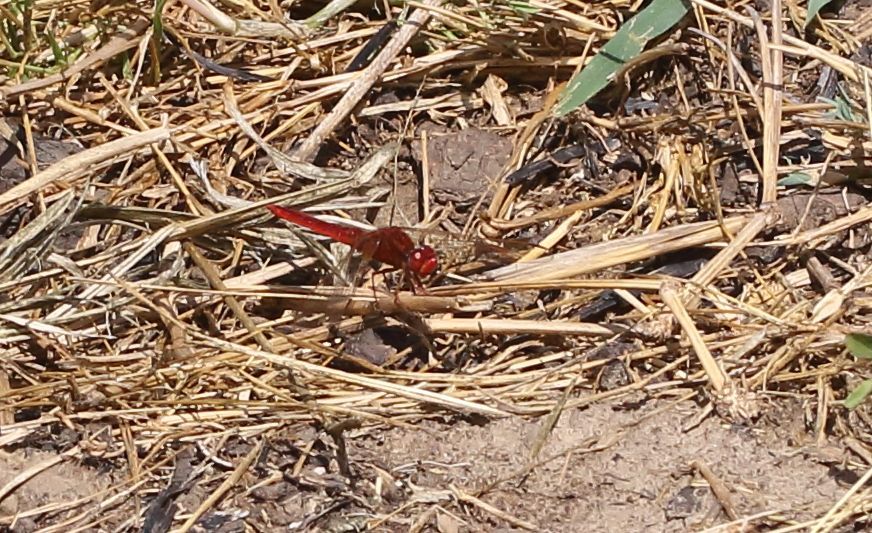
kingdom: Animalia
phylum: Arthropoda
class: Insecta
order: Odonata
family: Libellulidae
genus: Crocothemis
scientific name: Crocothemis erythraea
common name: Scarlet dragonfly
